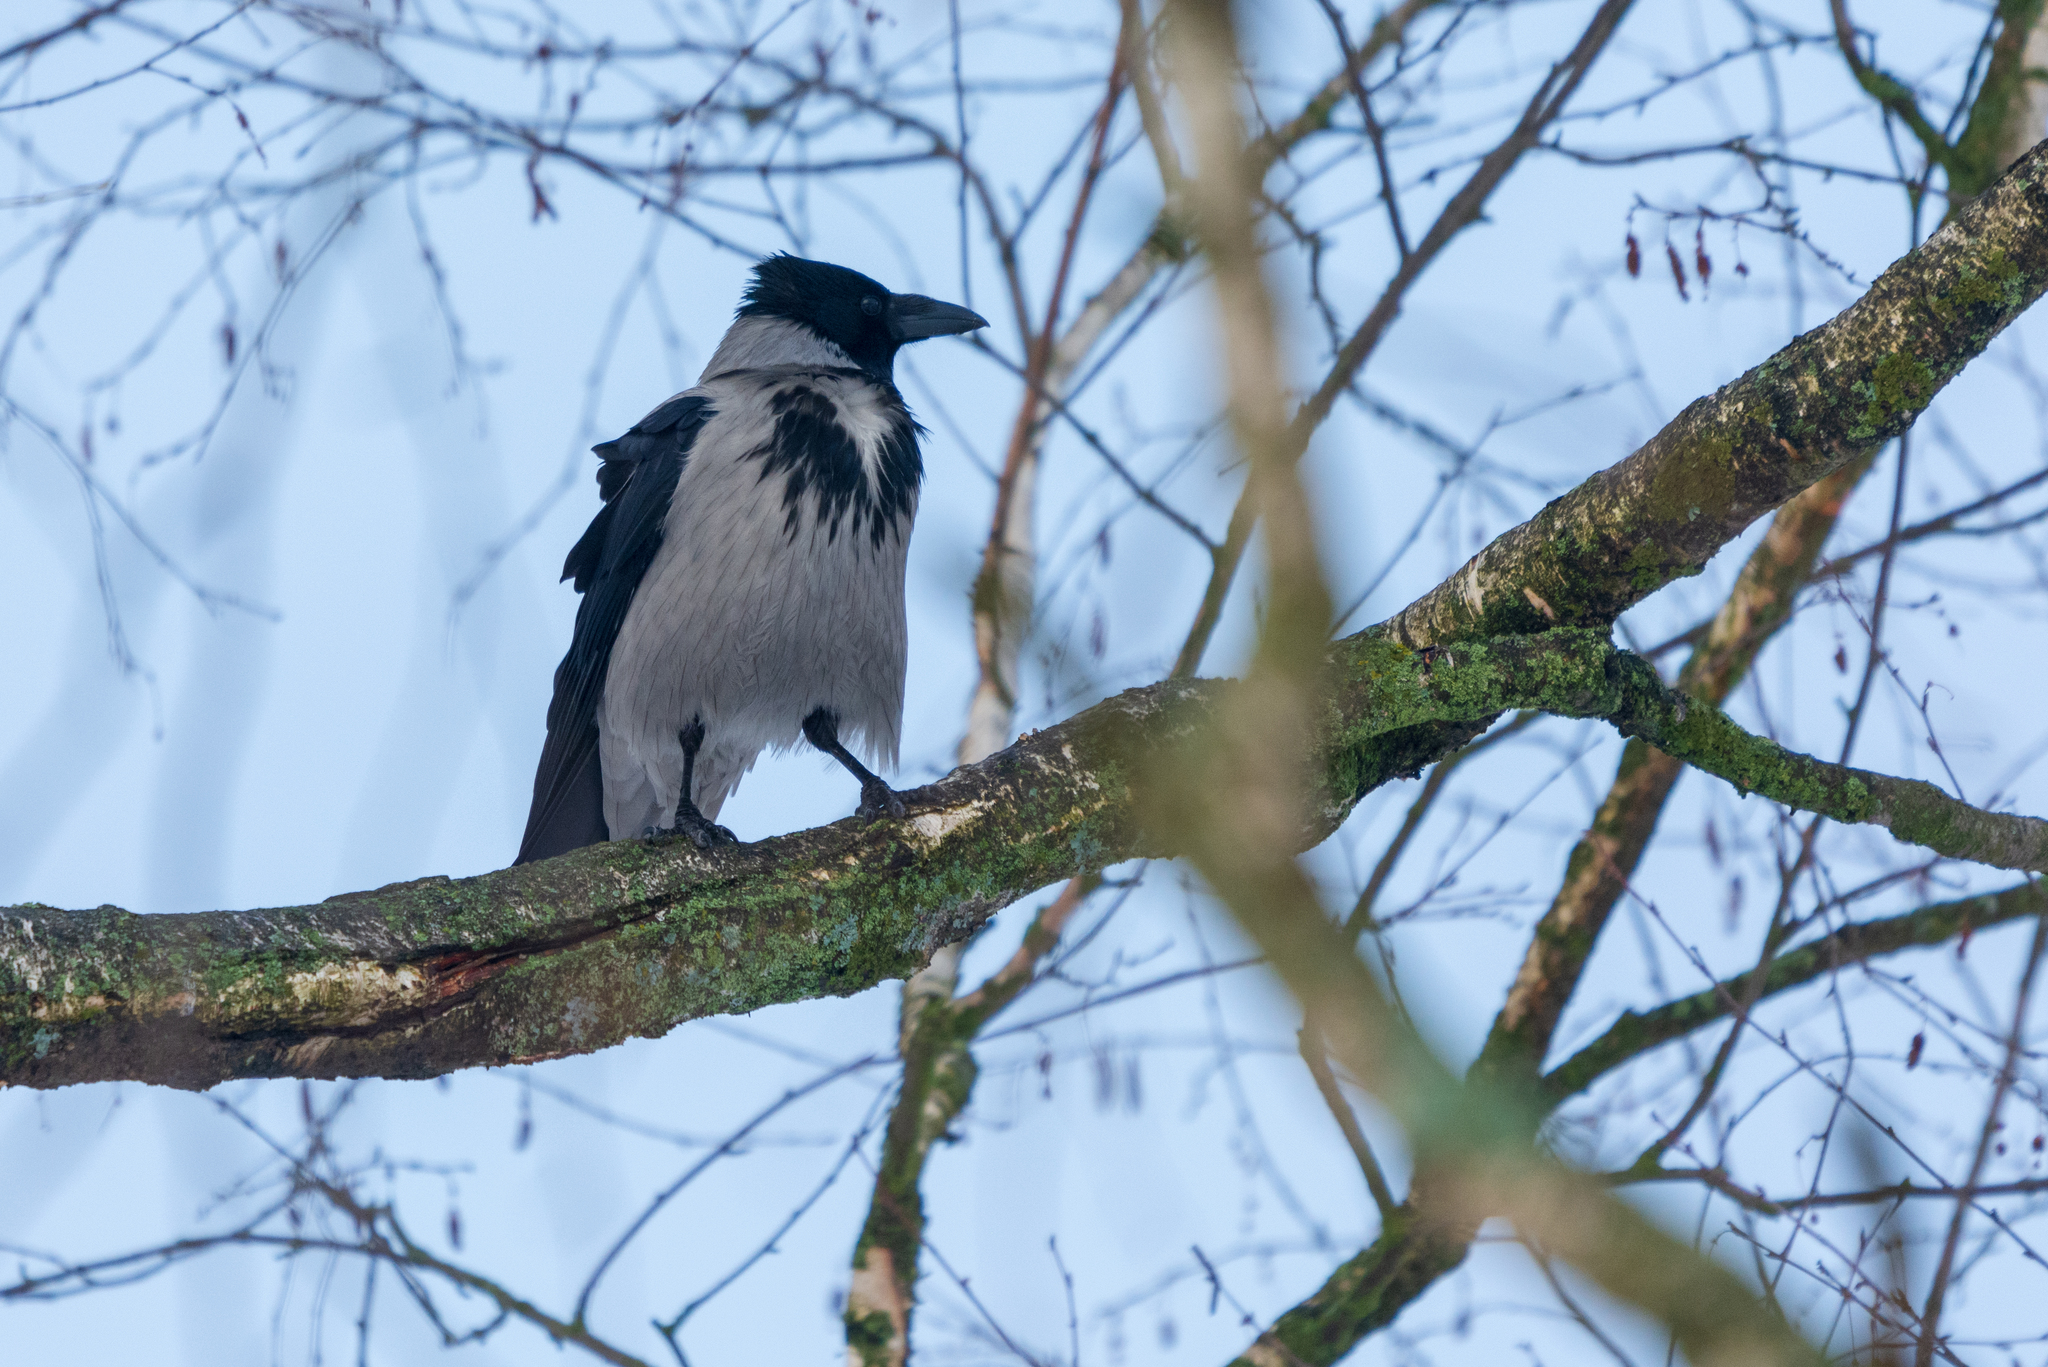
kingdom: Animalia
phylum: Chordata
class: Aves
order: Passeriformes
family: Corvidae
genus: Corvus
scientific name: Corvus cornix
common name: Hooded crow
